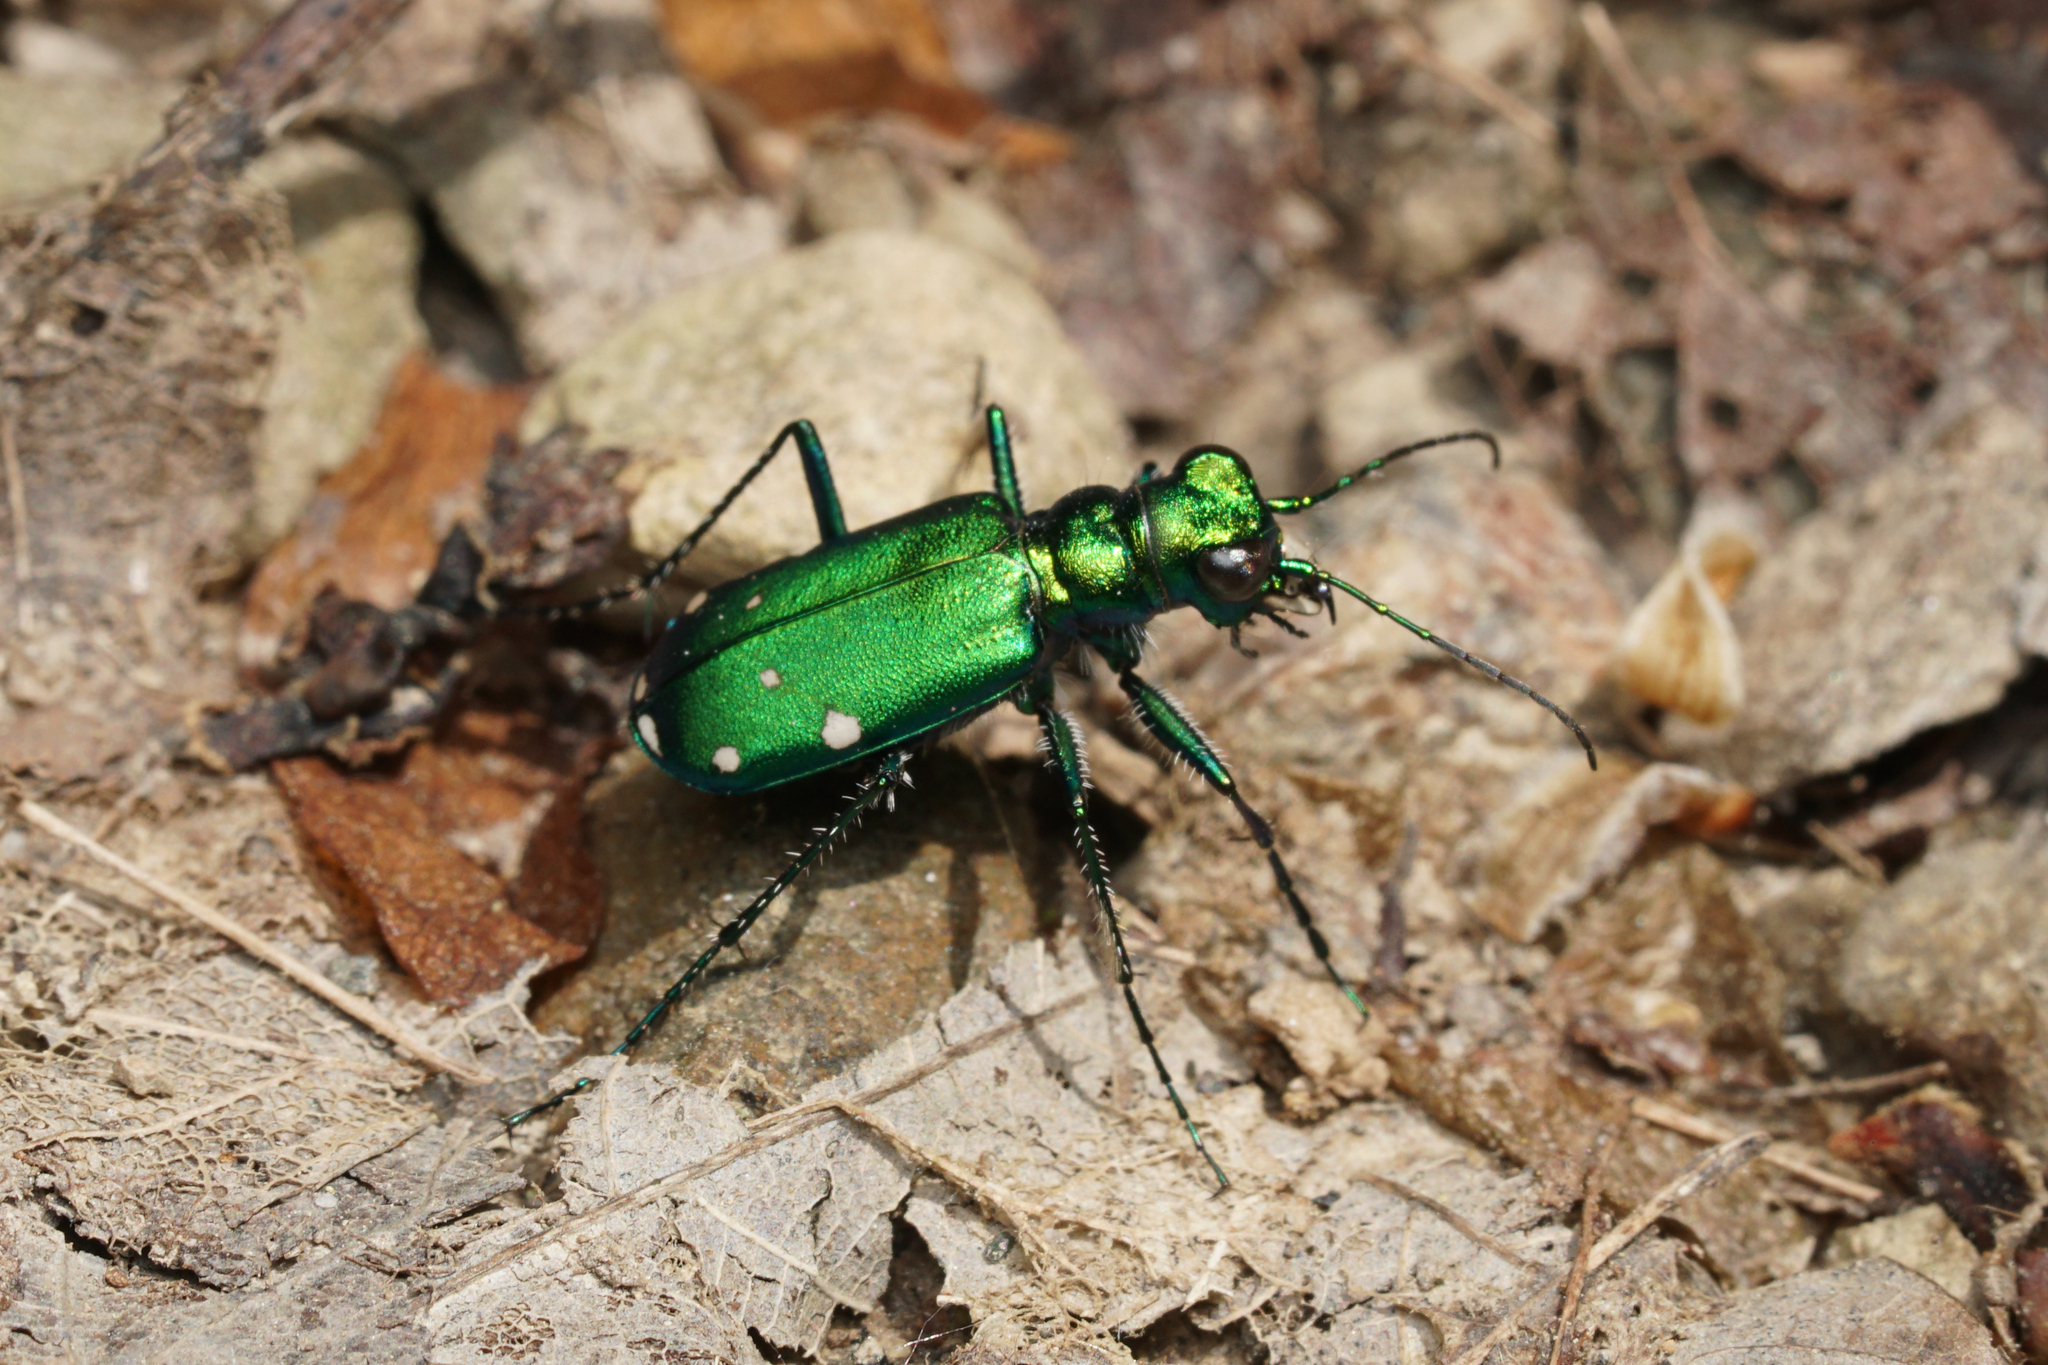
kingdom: Animalia
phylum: Arthropoda
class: Insecta
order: Coleoptera
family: Carabidae
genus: Cicindela
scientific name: Cicindela sexguttata
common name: Six-spotted tiger beetle
